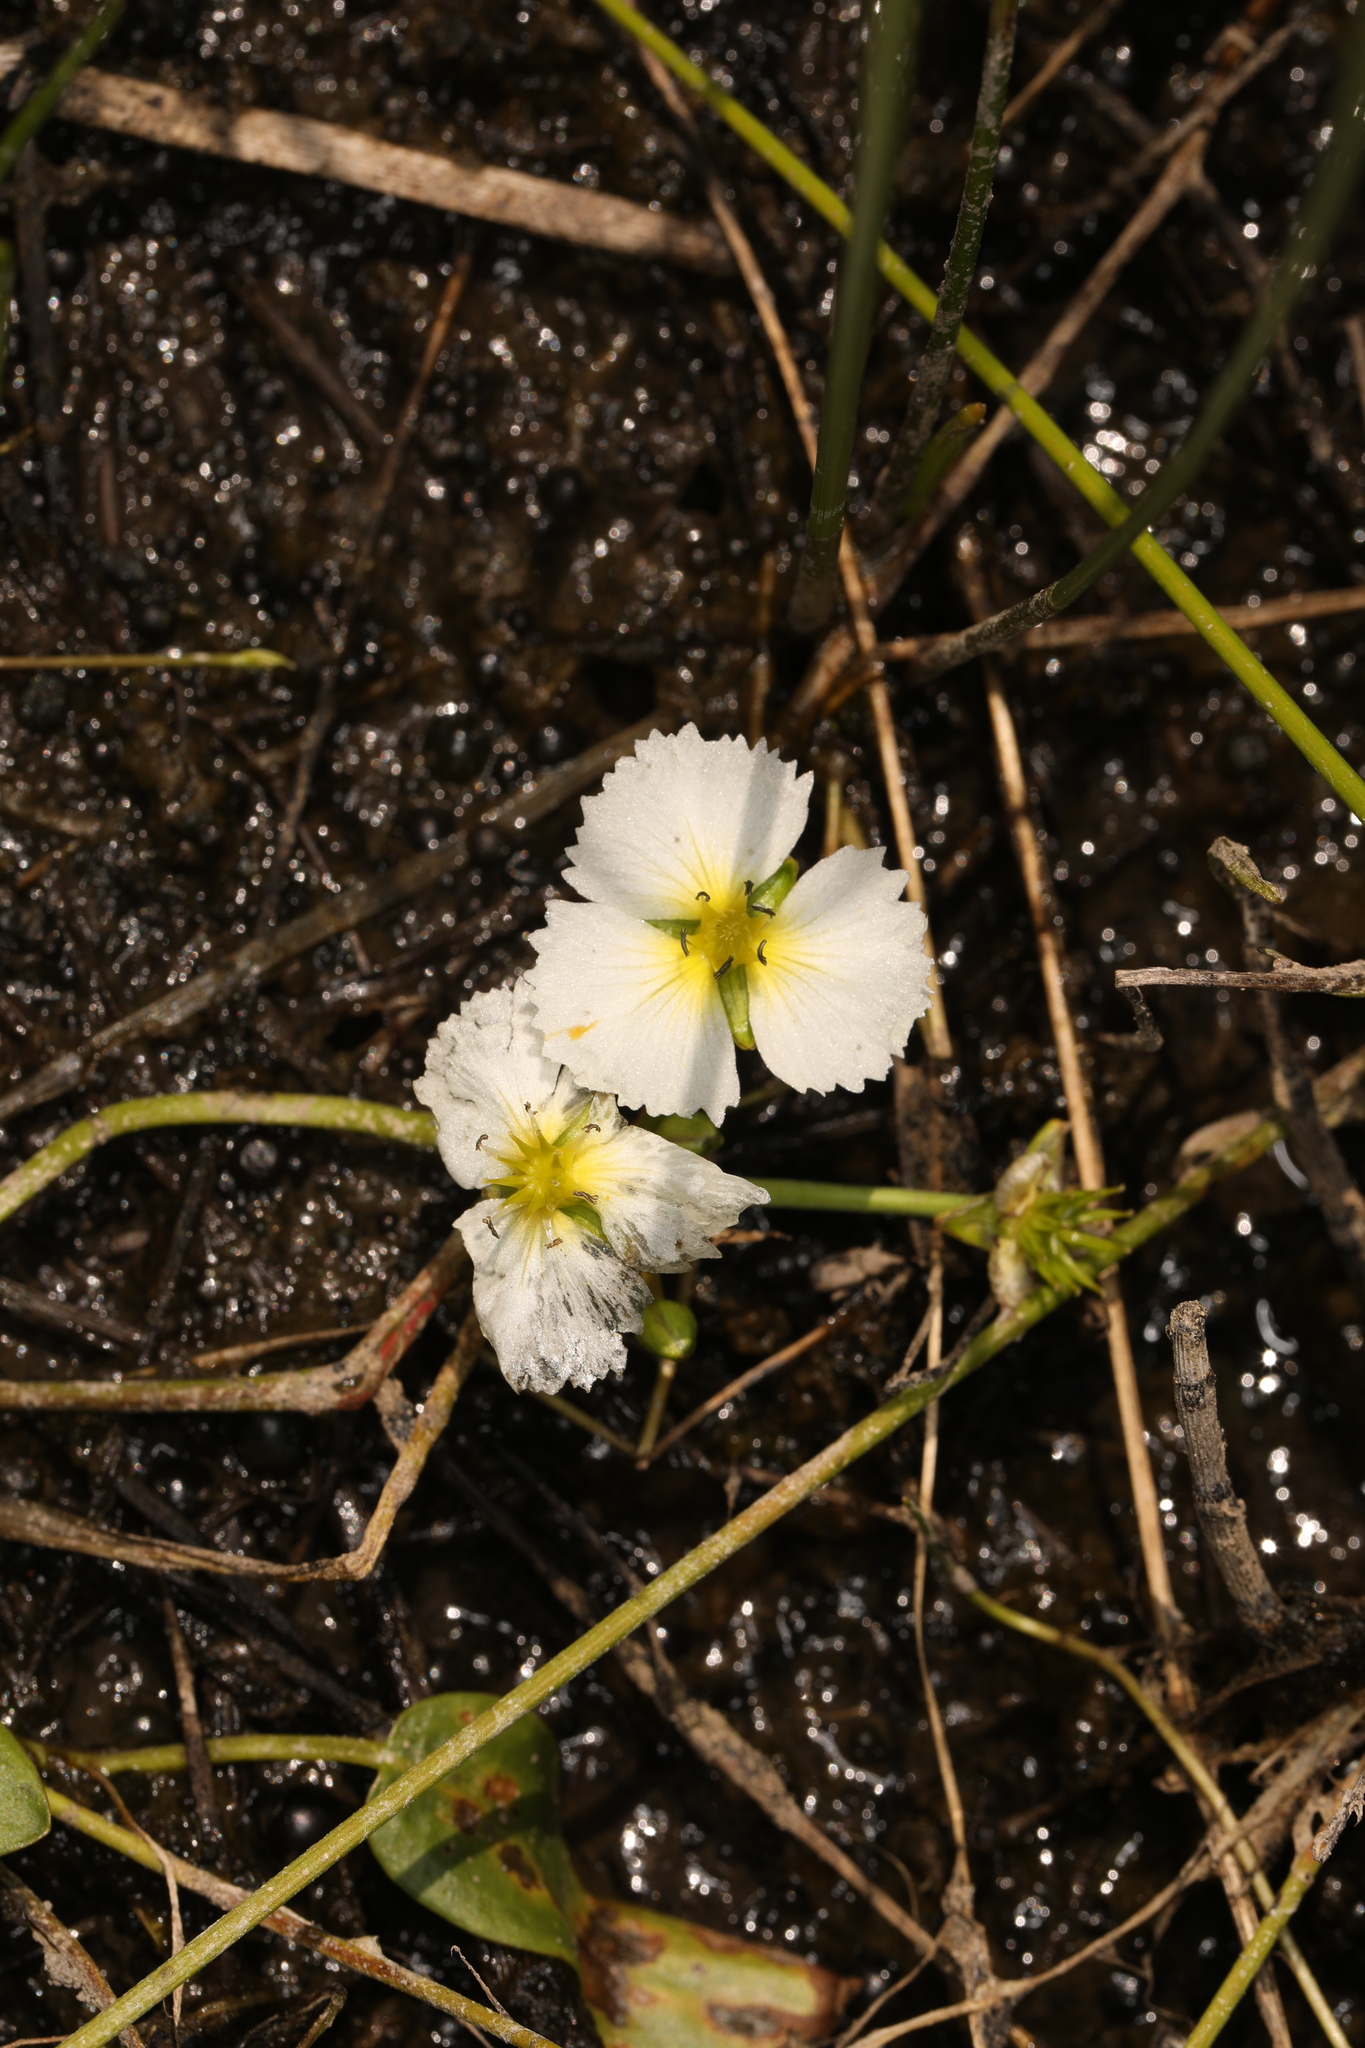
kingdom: Plantae
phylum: Tracheophyta
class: Liliopsida
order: Alismatales
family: Alismataceae
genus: Damasonium
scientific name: Damasonium californicum
